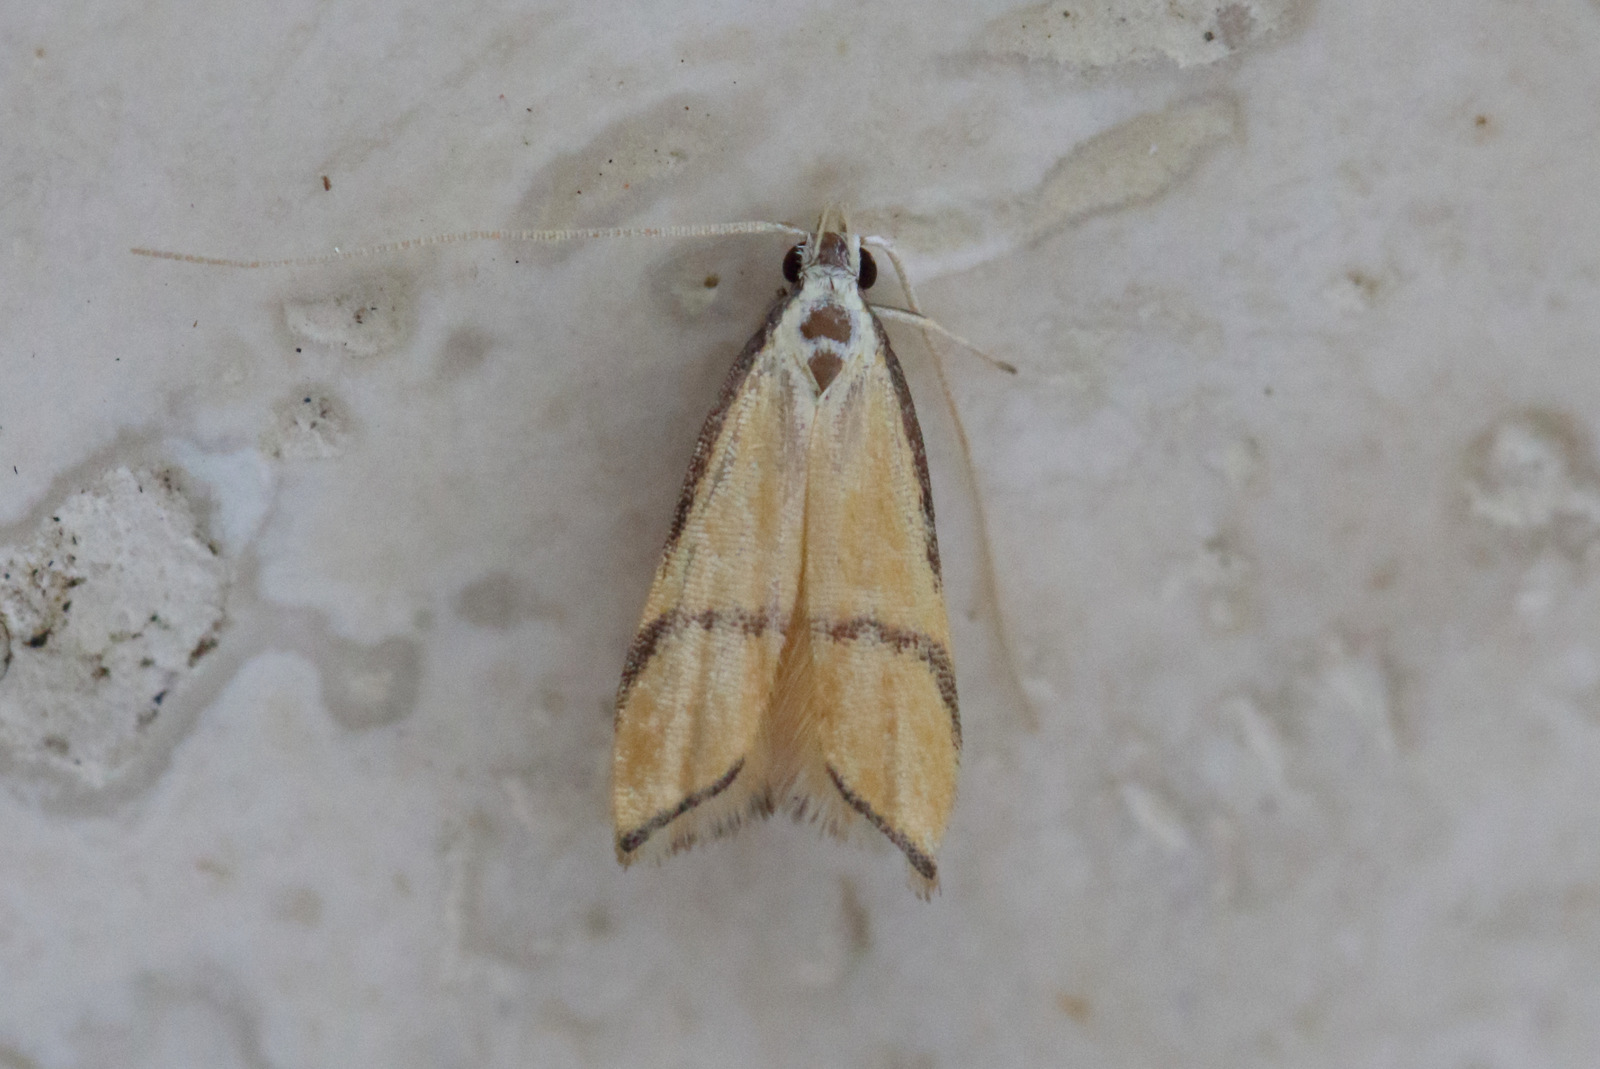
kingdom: Animalia
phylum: Arthropoda
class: Insecta
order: Lepidoptera
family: Lecithoceridae
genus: Crocanthes
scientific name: Crocanthes perigrapta
